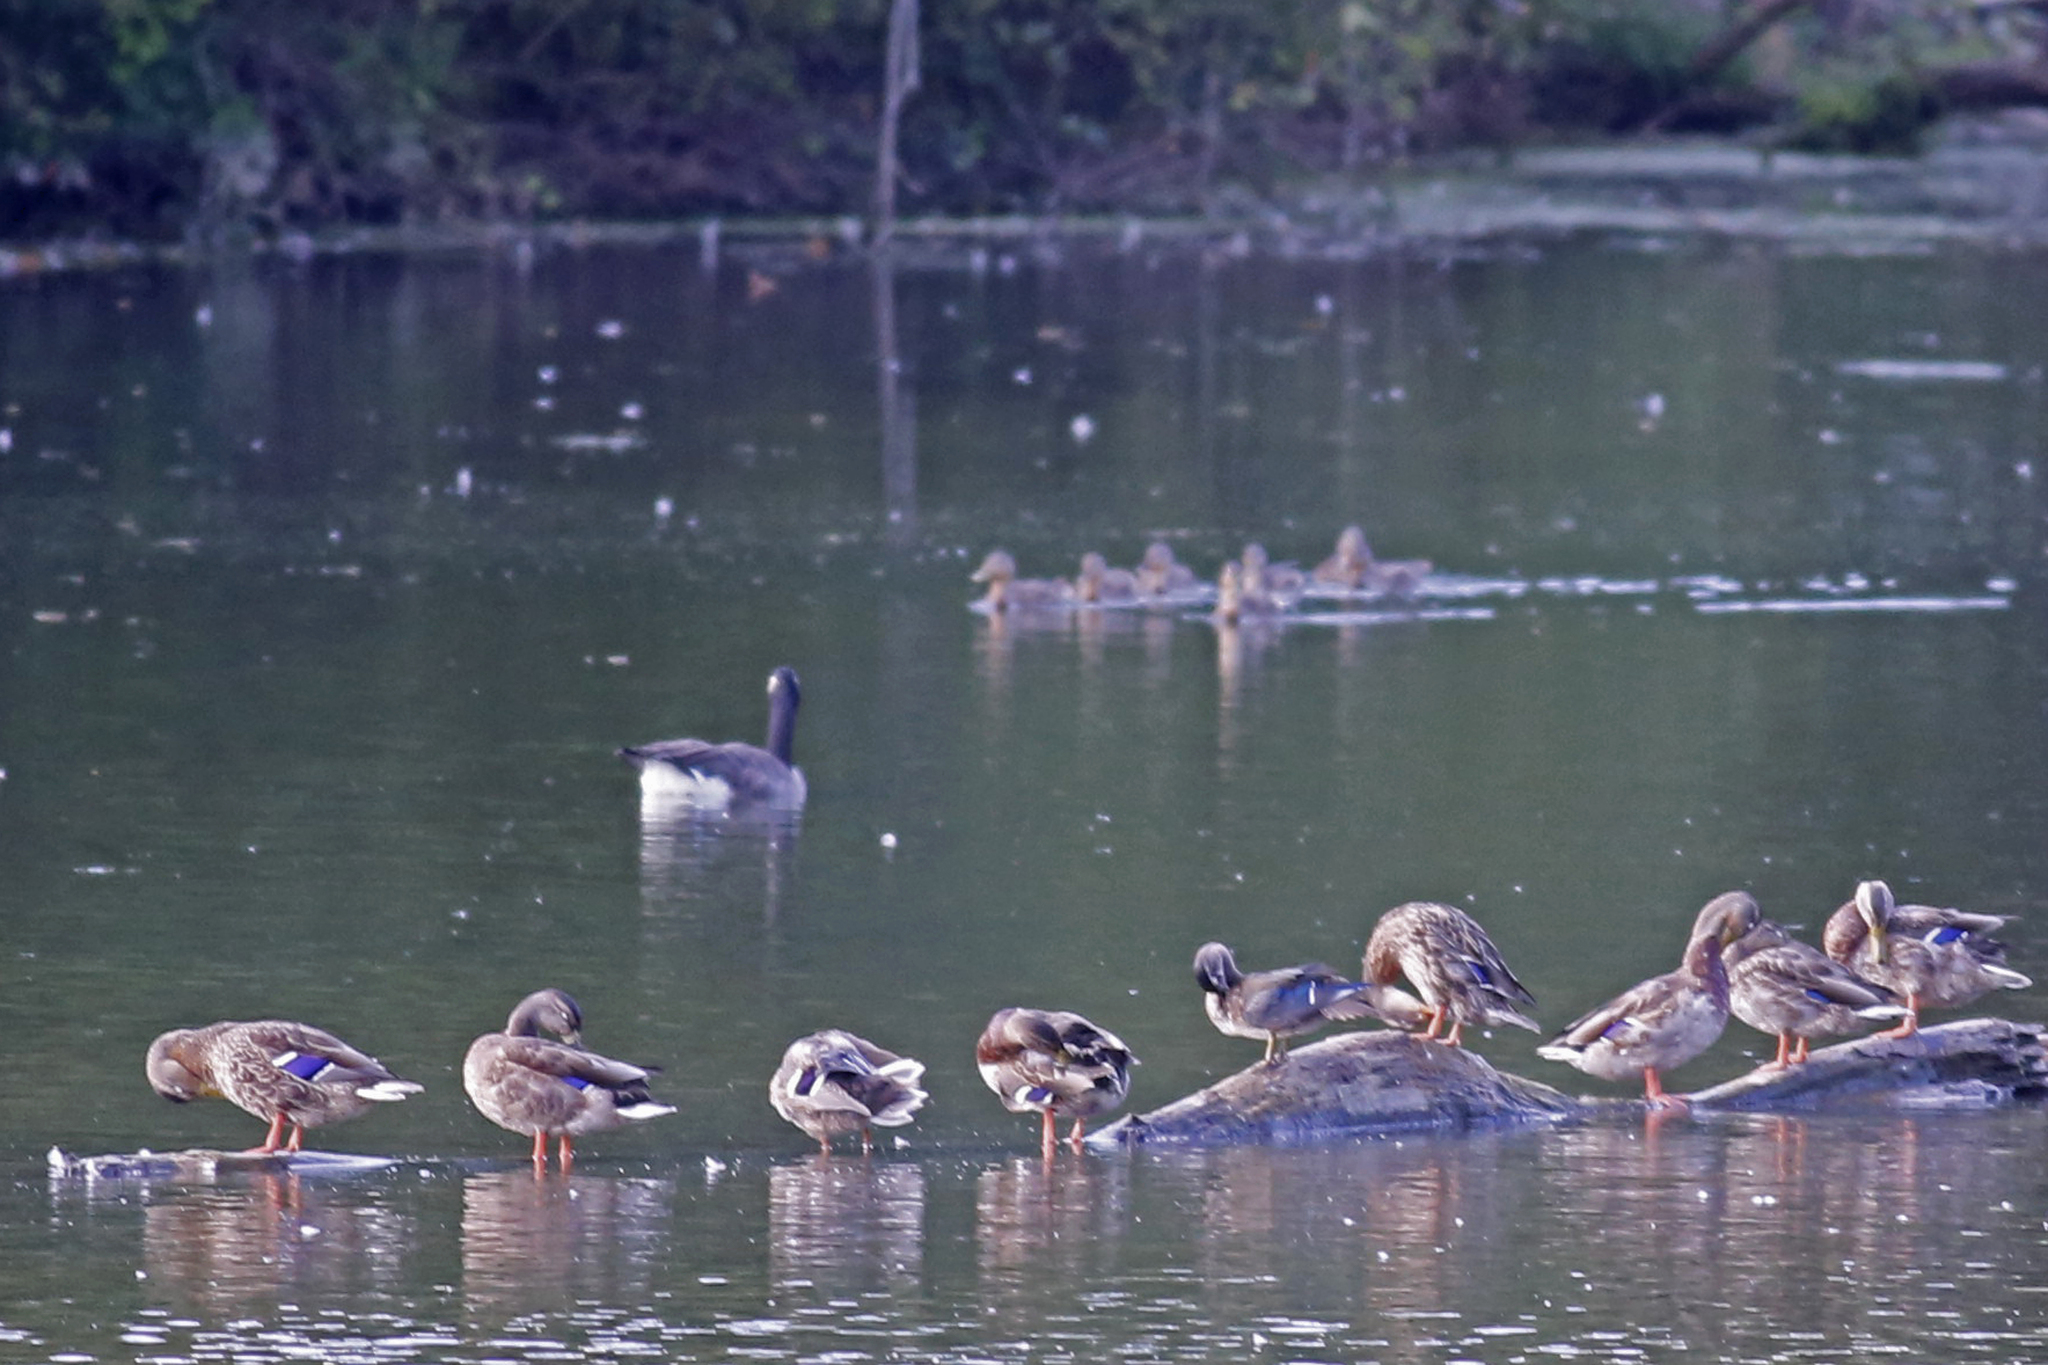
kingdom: Animalia
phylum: Chordata
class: Aves
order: Anseriformes
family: Anatidae
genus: Aix
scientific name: Aix sponsa
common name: Wood duck
